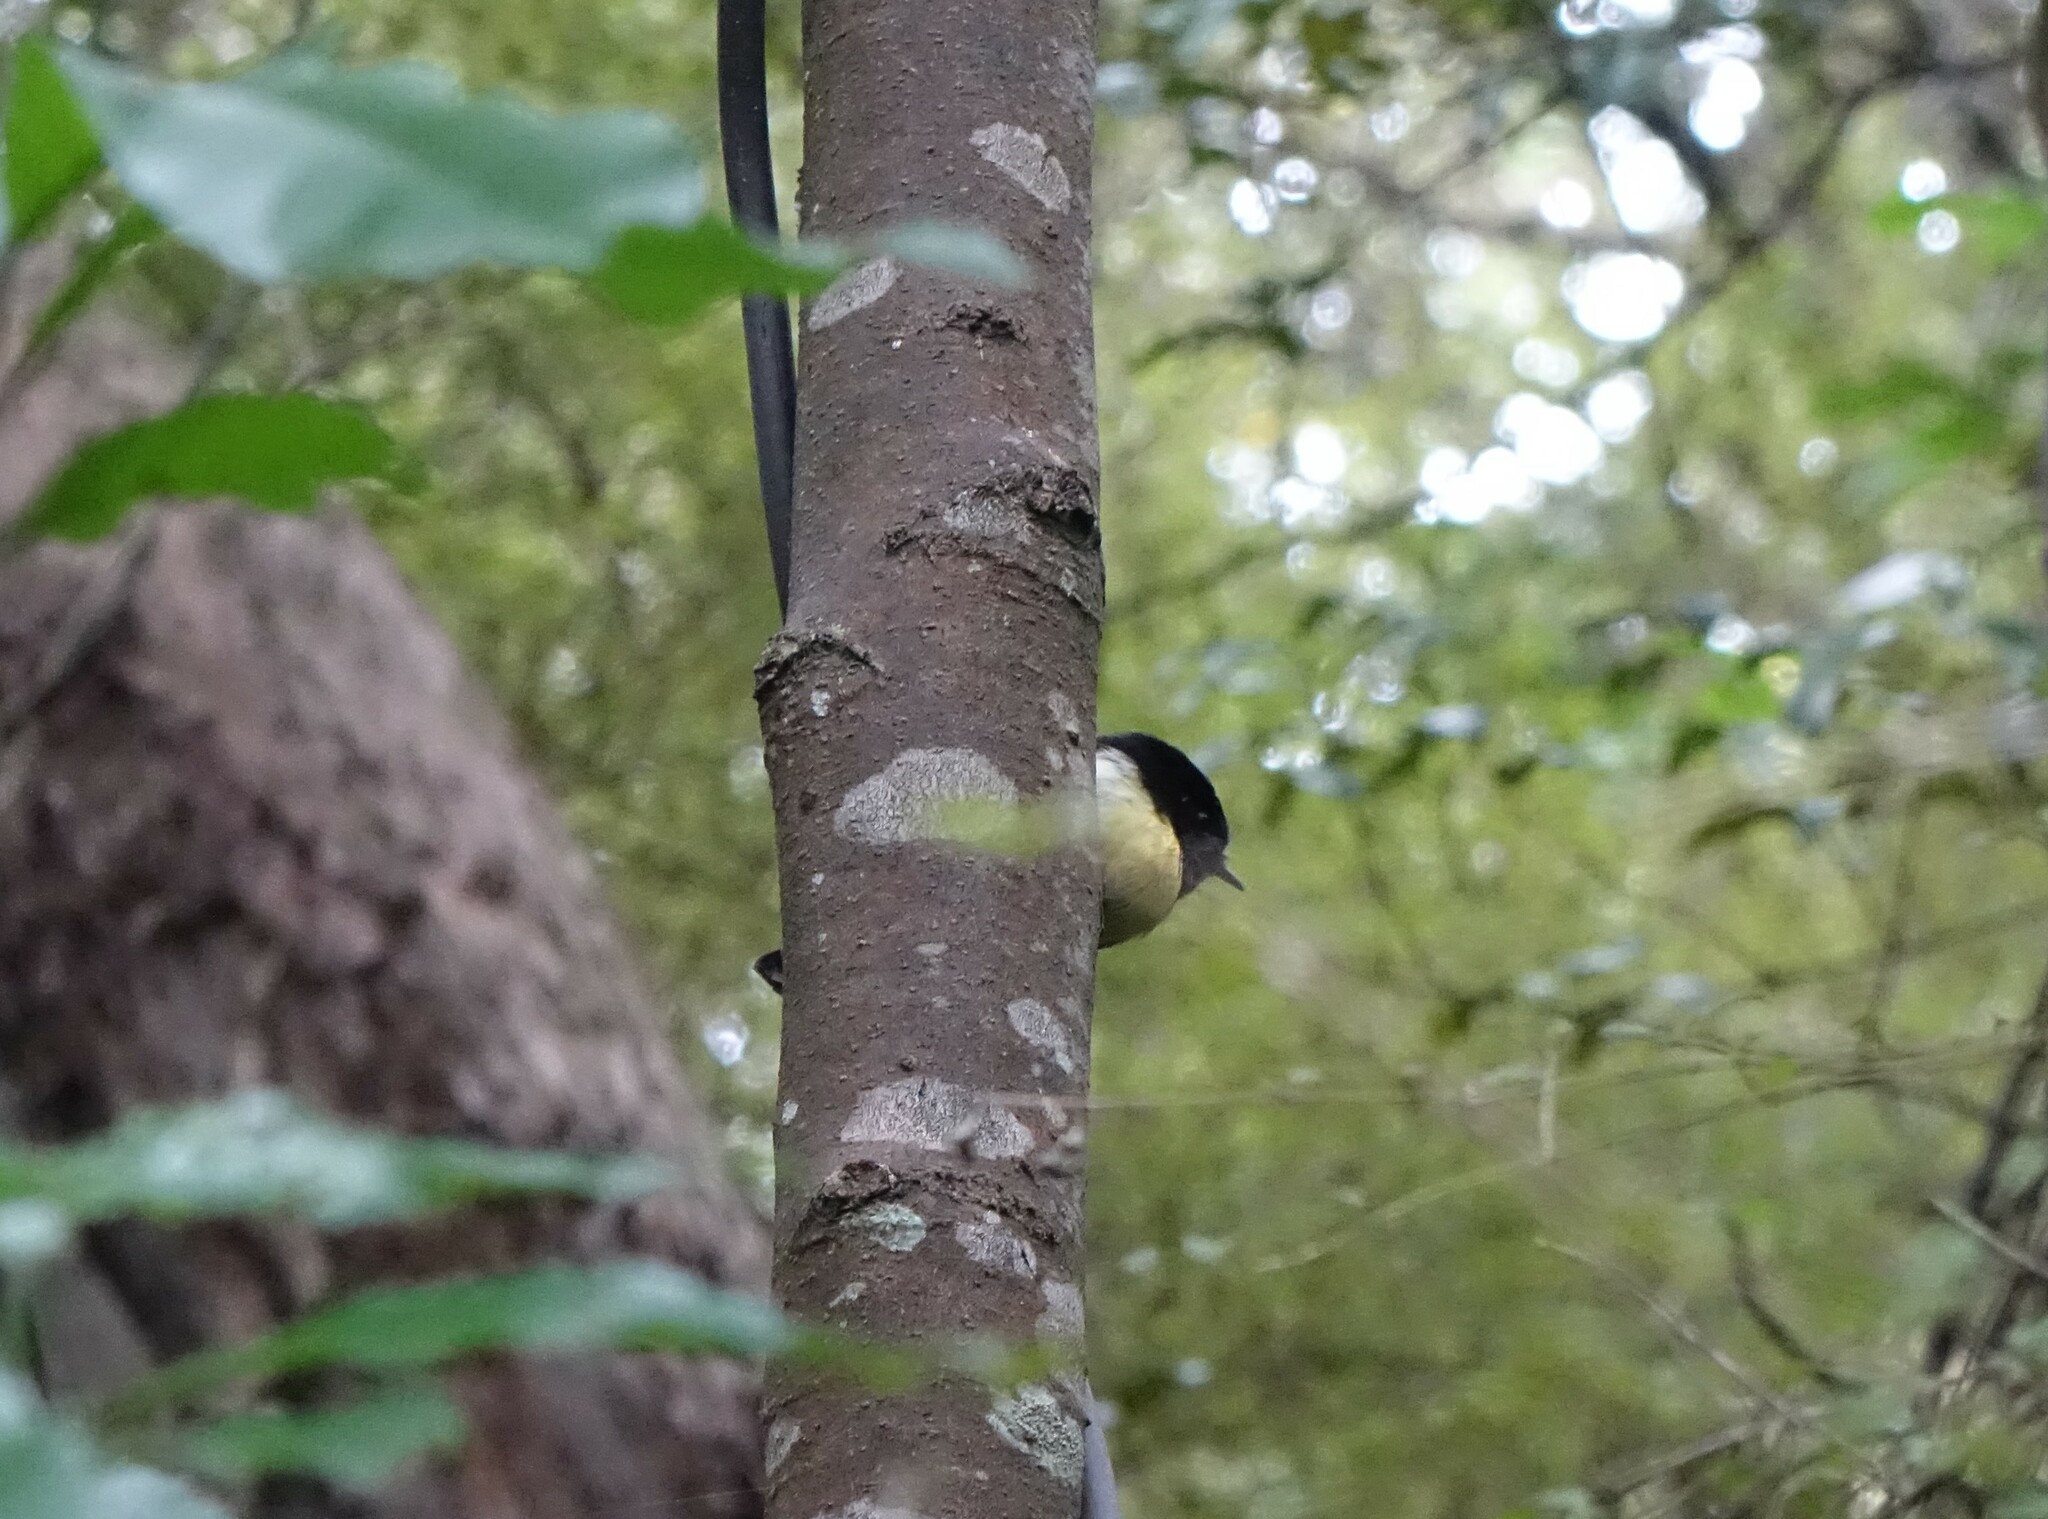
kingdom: Animalia
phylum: Chordata
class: Aves
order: Passeriformes
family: Petroicidae
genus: Petroica
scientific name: Petroica macrocephala
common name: Tomtit
